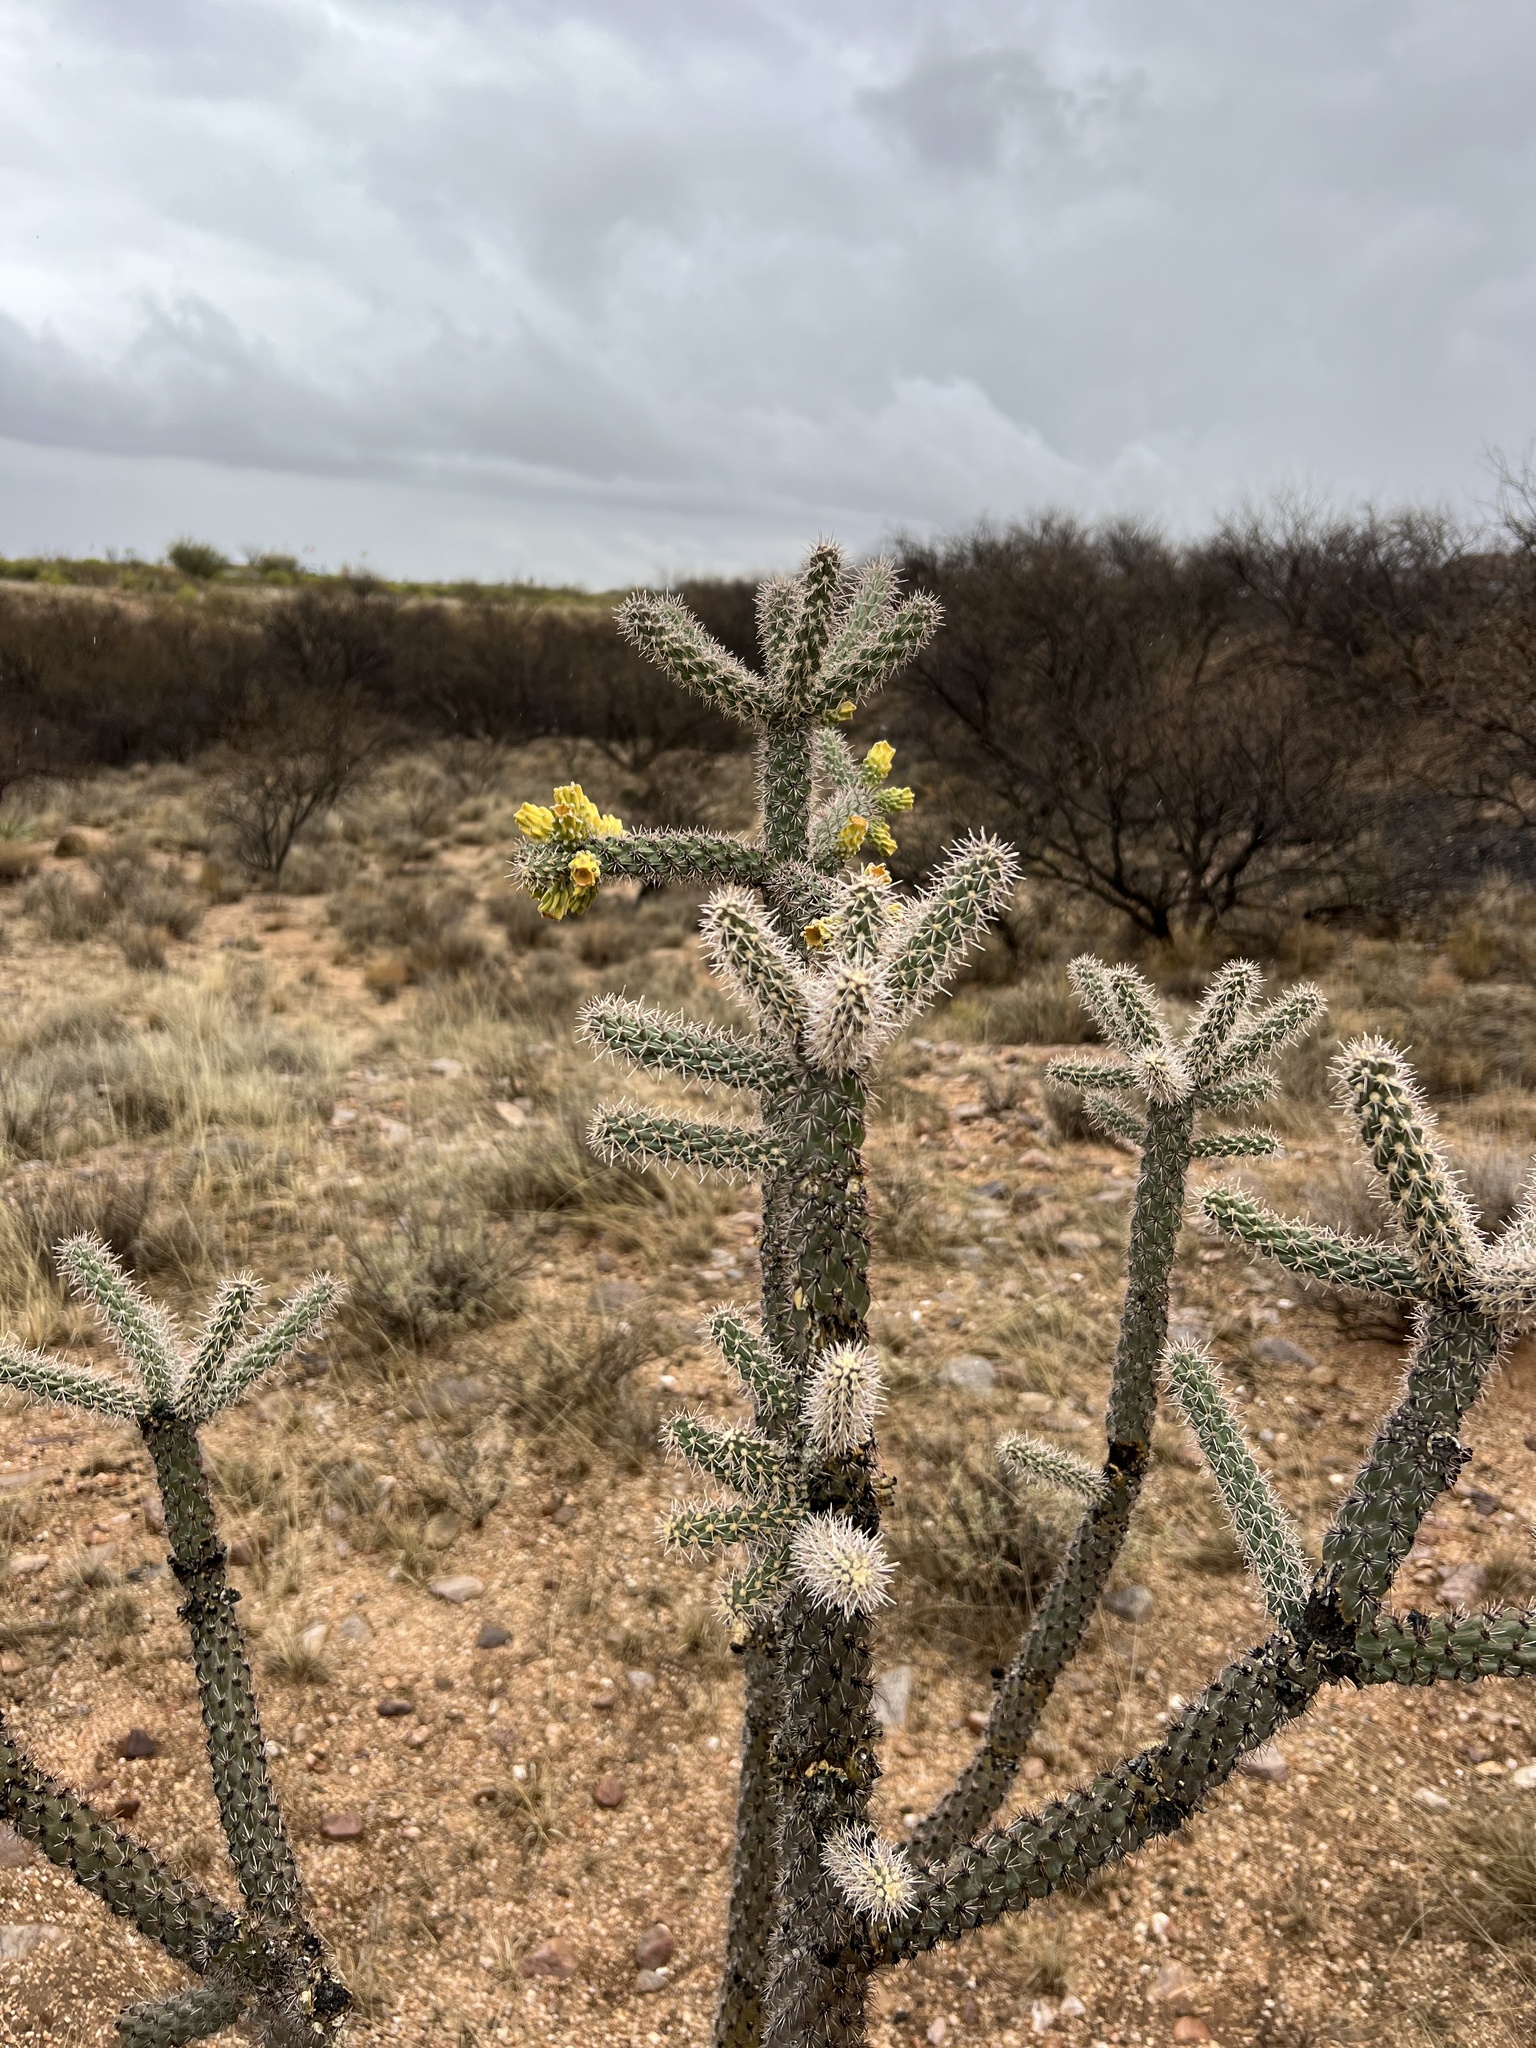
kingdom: Plantae
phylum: Tracheophyta
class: Magnoliopsida
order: Caryophyllales
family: Cactaceae
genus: Cylindropuntia
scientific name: Cylindropuntia imbricata
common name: Candelabrum cactus
